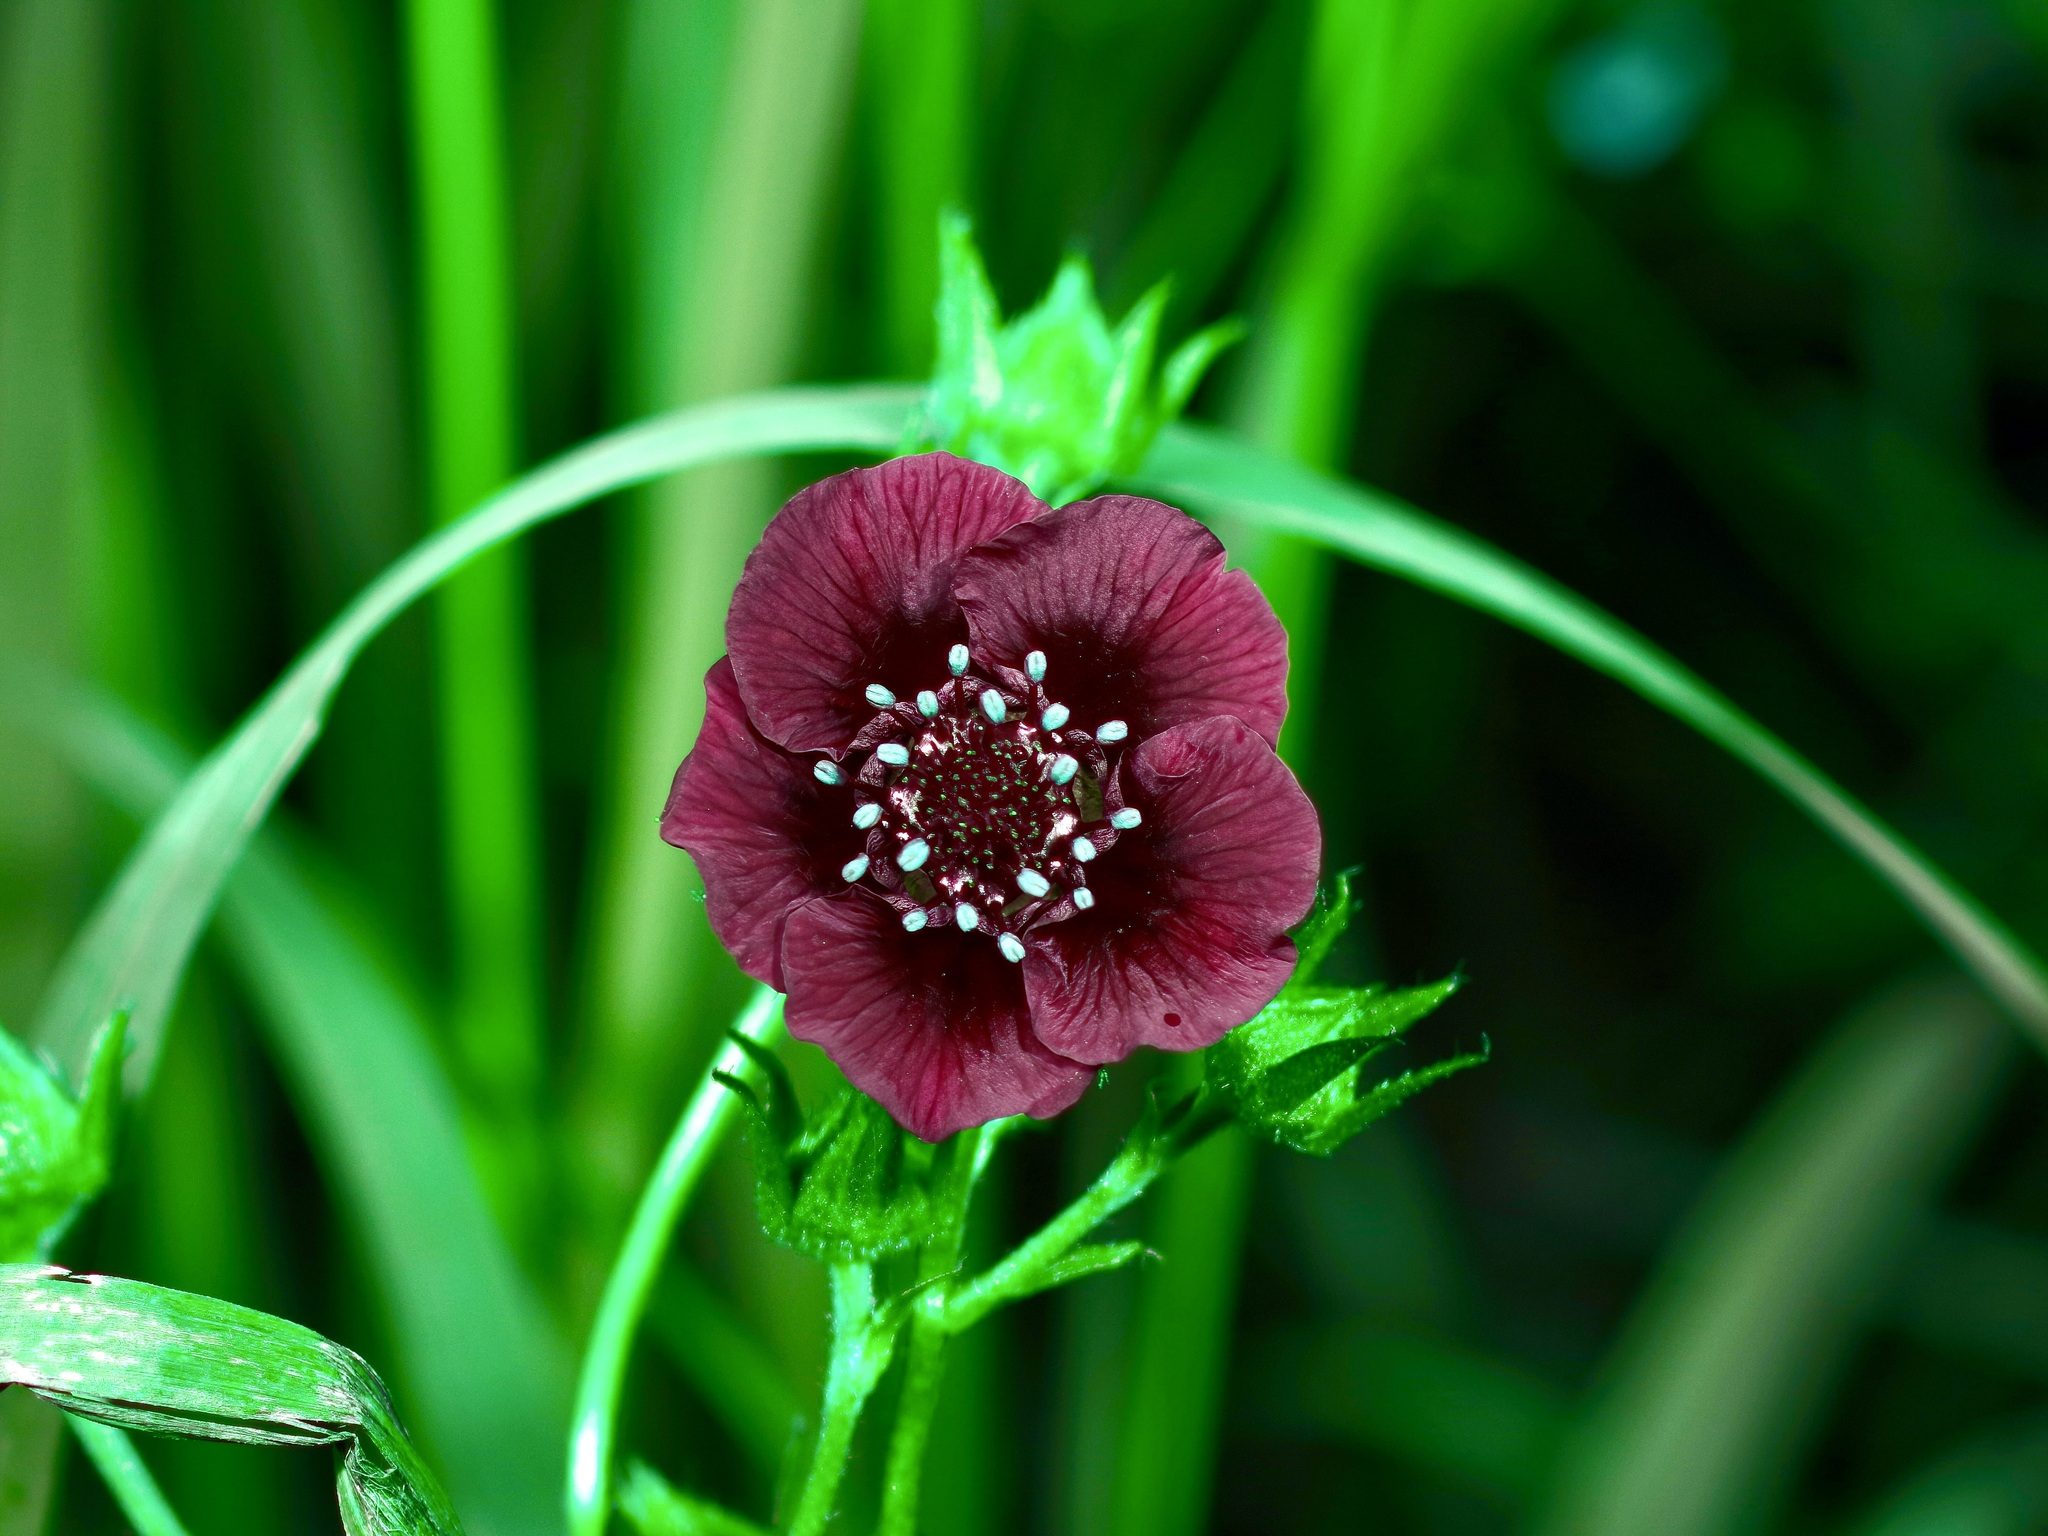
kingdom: Plantae
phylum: Tracheophyta
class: Magnoliopsida
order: Rosales
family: Rosaceae
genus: Potentilla
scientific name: Potentilla thurberi
